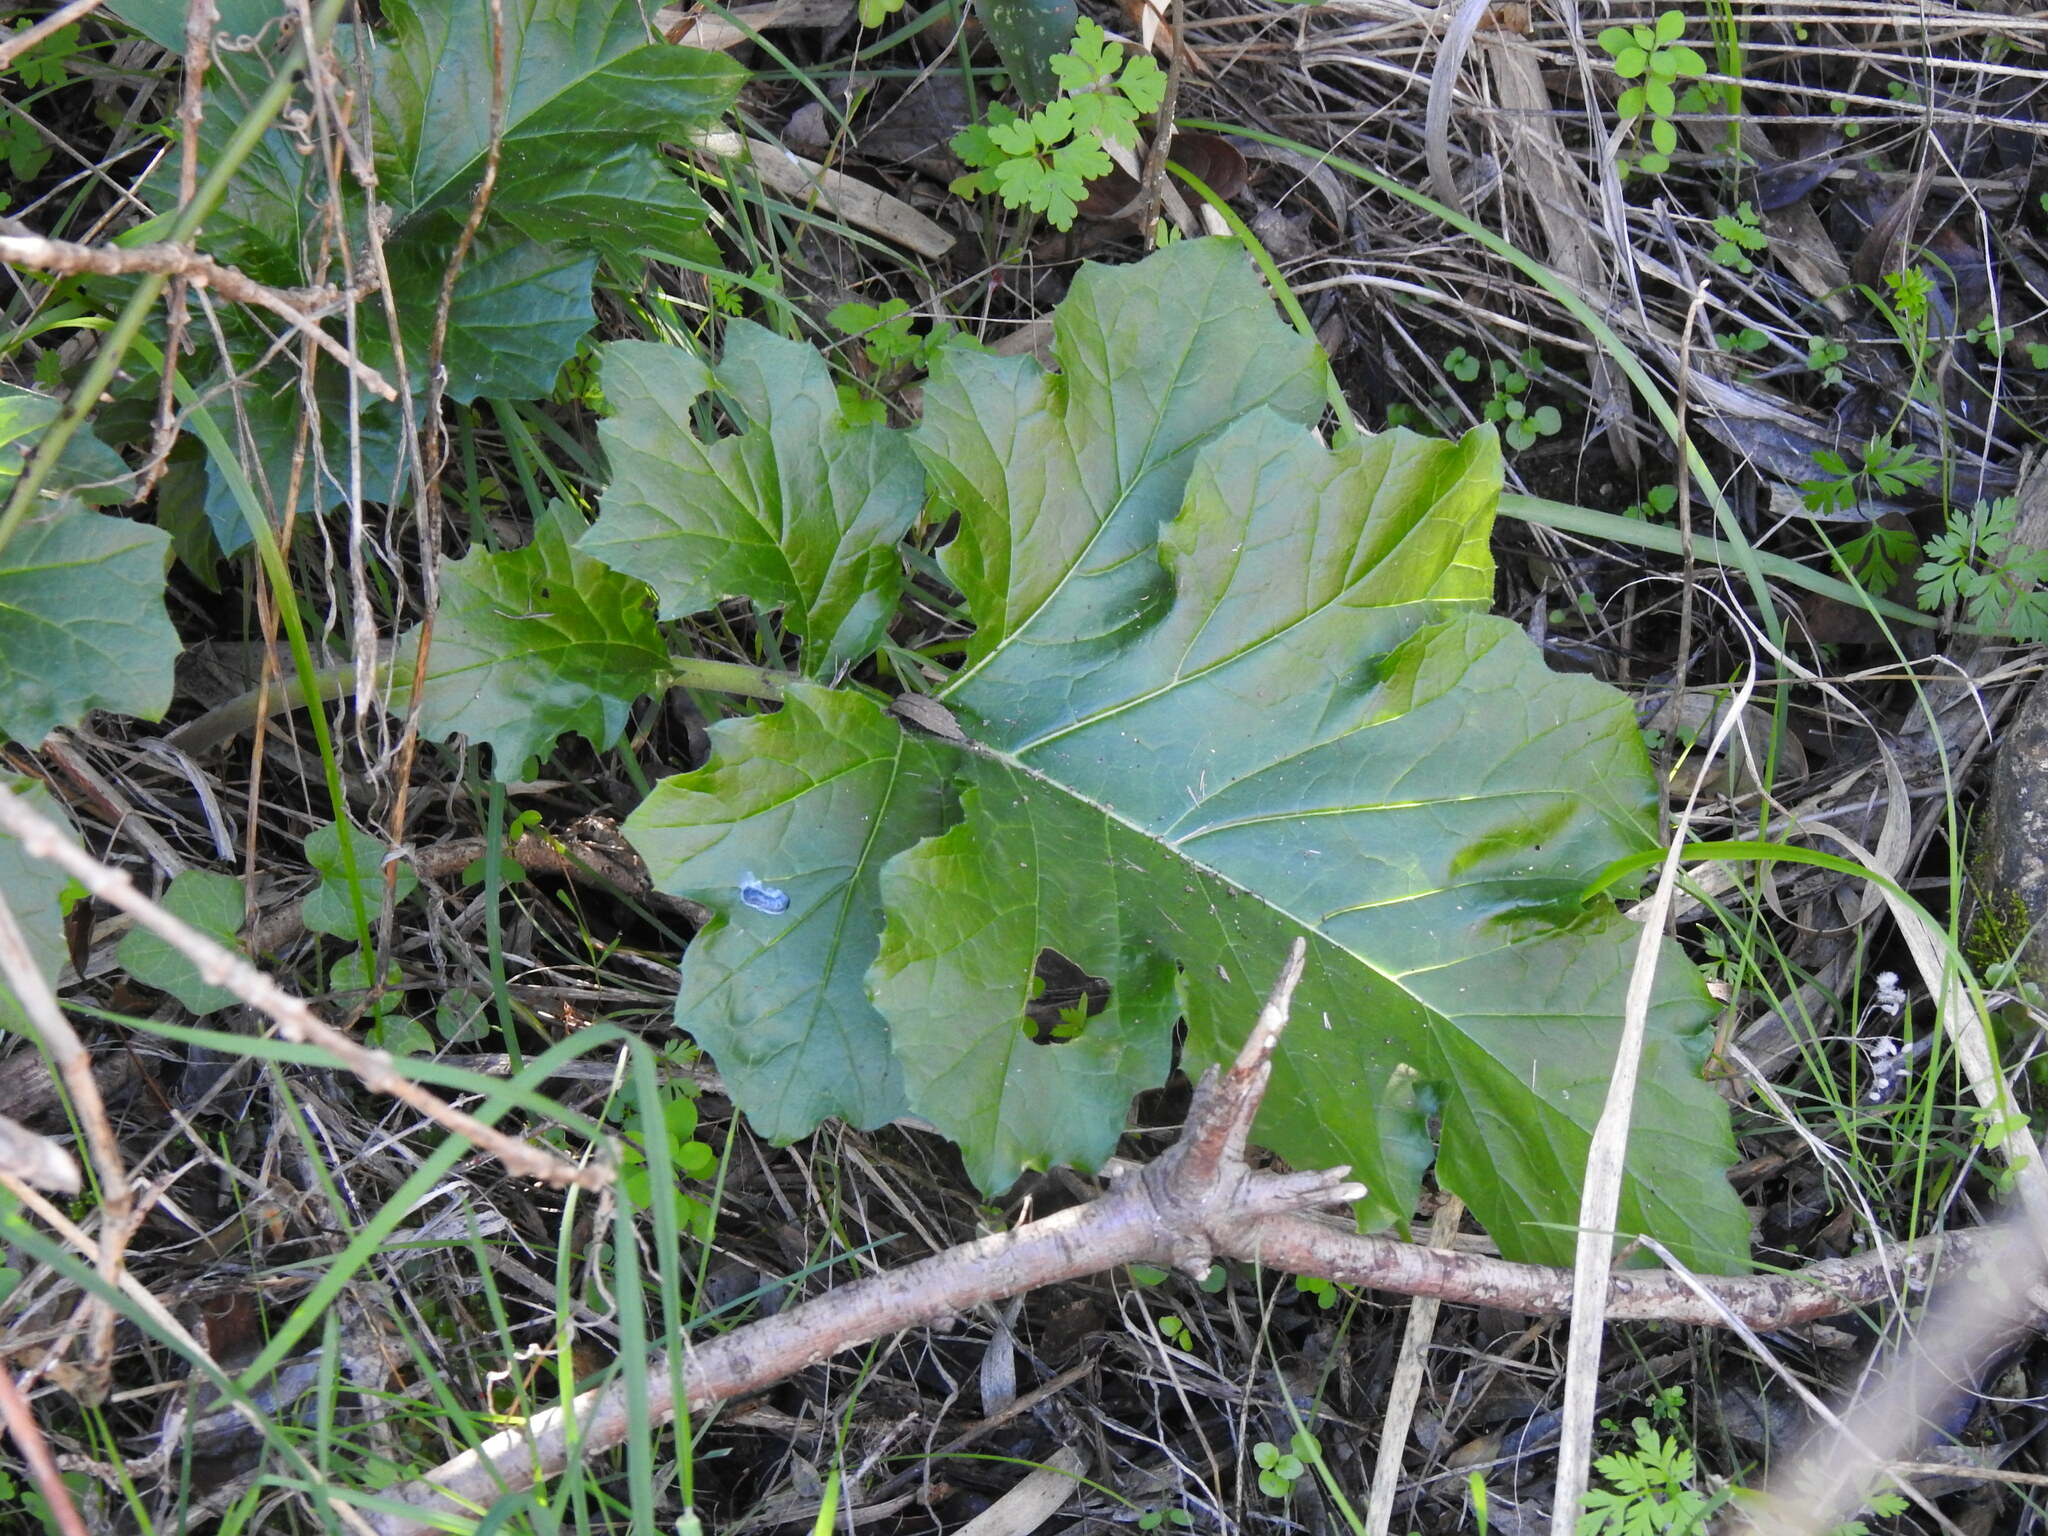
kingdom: Plantae
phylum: Tracheophyta
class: Magnoliopsida
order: Lamiales
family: Acanthaceae
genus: Acanthus
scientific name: Acanthus mollis
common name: Bear's-breech
